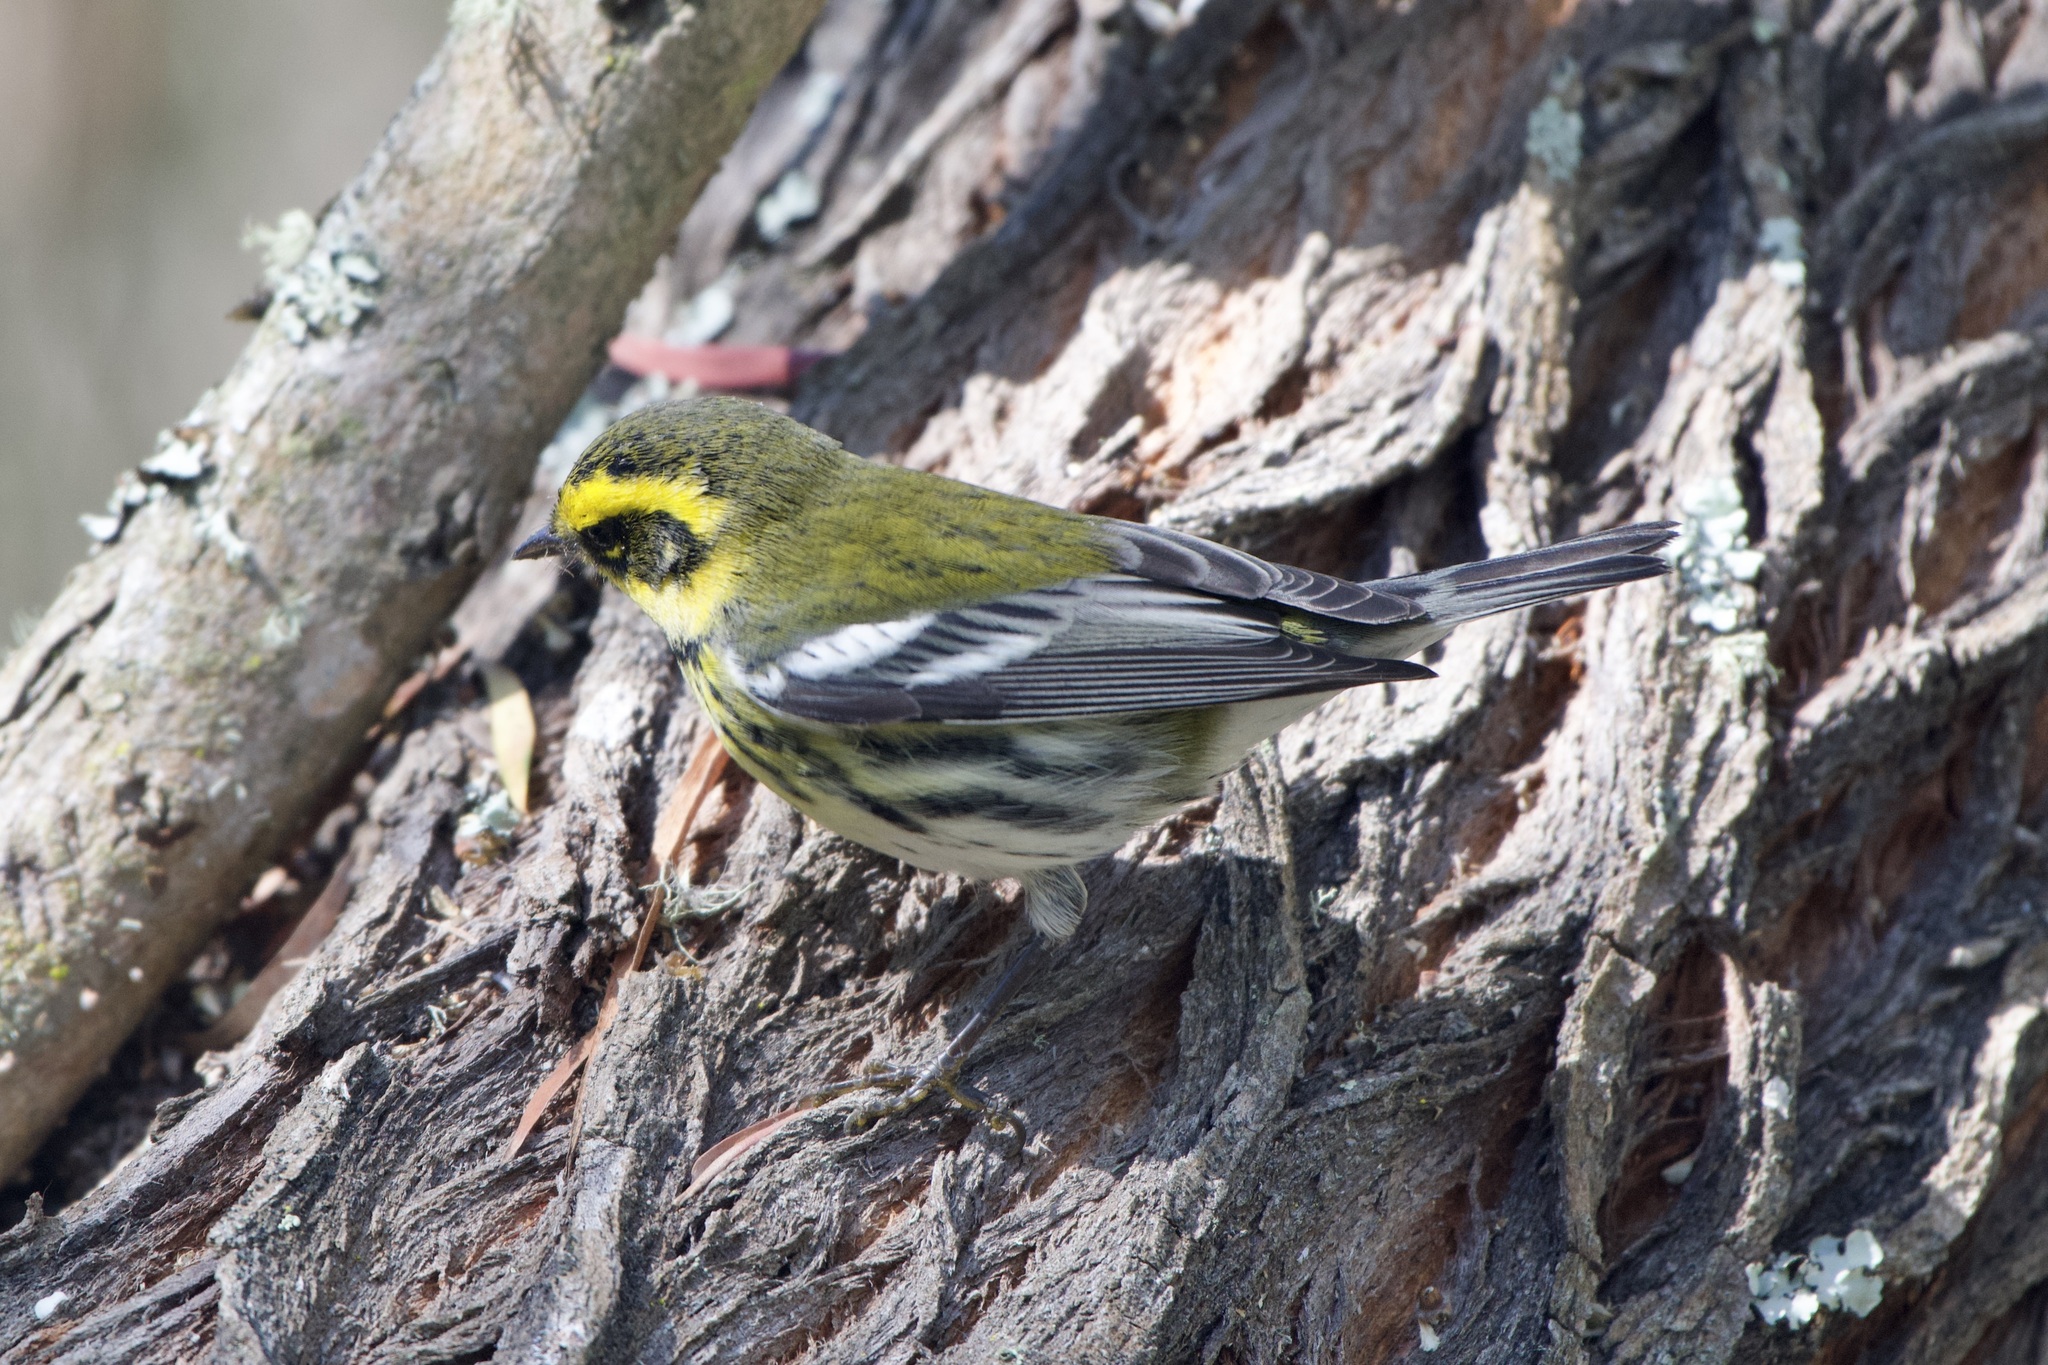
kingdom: Animalia
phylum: Chordata
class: Aves
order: Passeriformes
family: Parulidae
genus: Setophaga
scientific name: Setophaga townsendi
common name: Townsend's warbler
